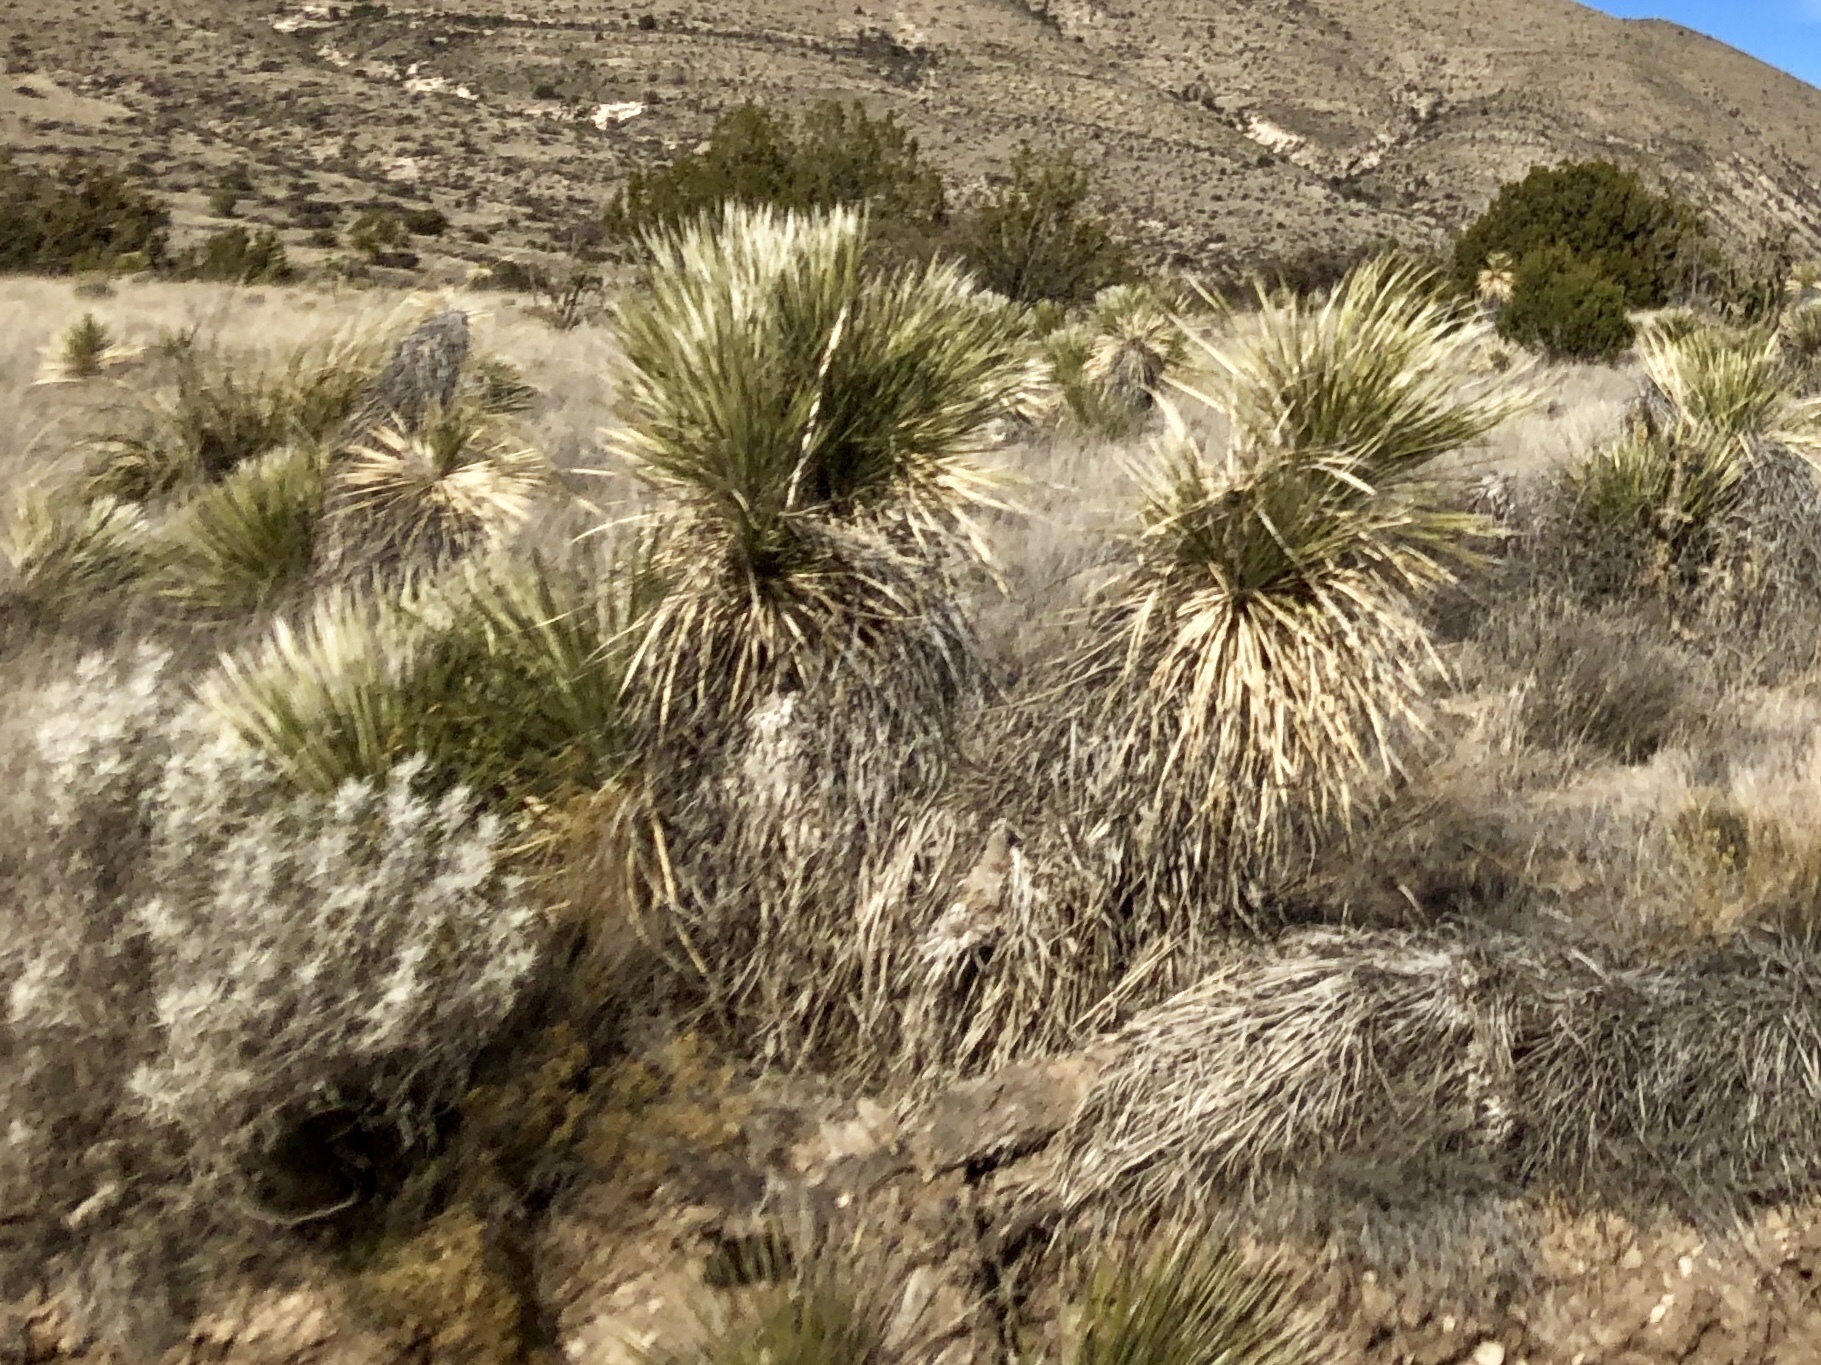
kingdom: Plantae
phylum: Tracheophyta
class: Liliopsida
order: Asparagales
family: Asparagaceae
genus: Yucca
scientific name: Yucca elata
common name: Palmella
